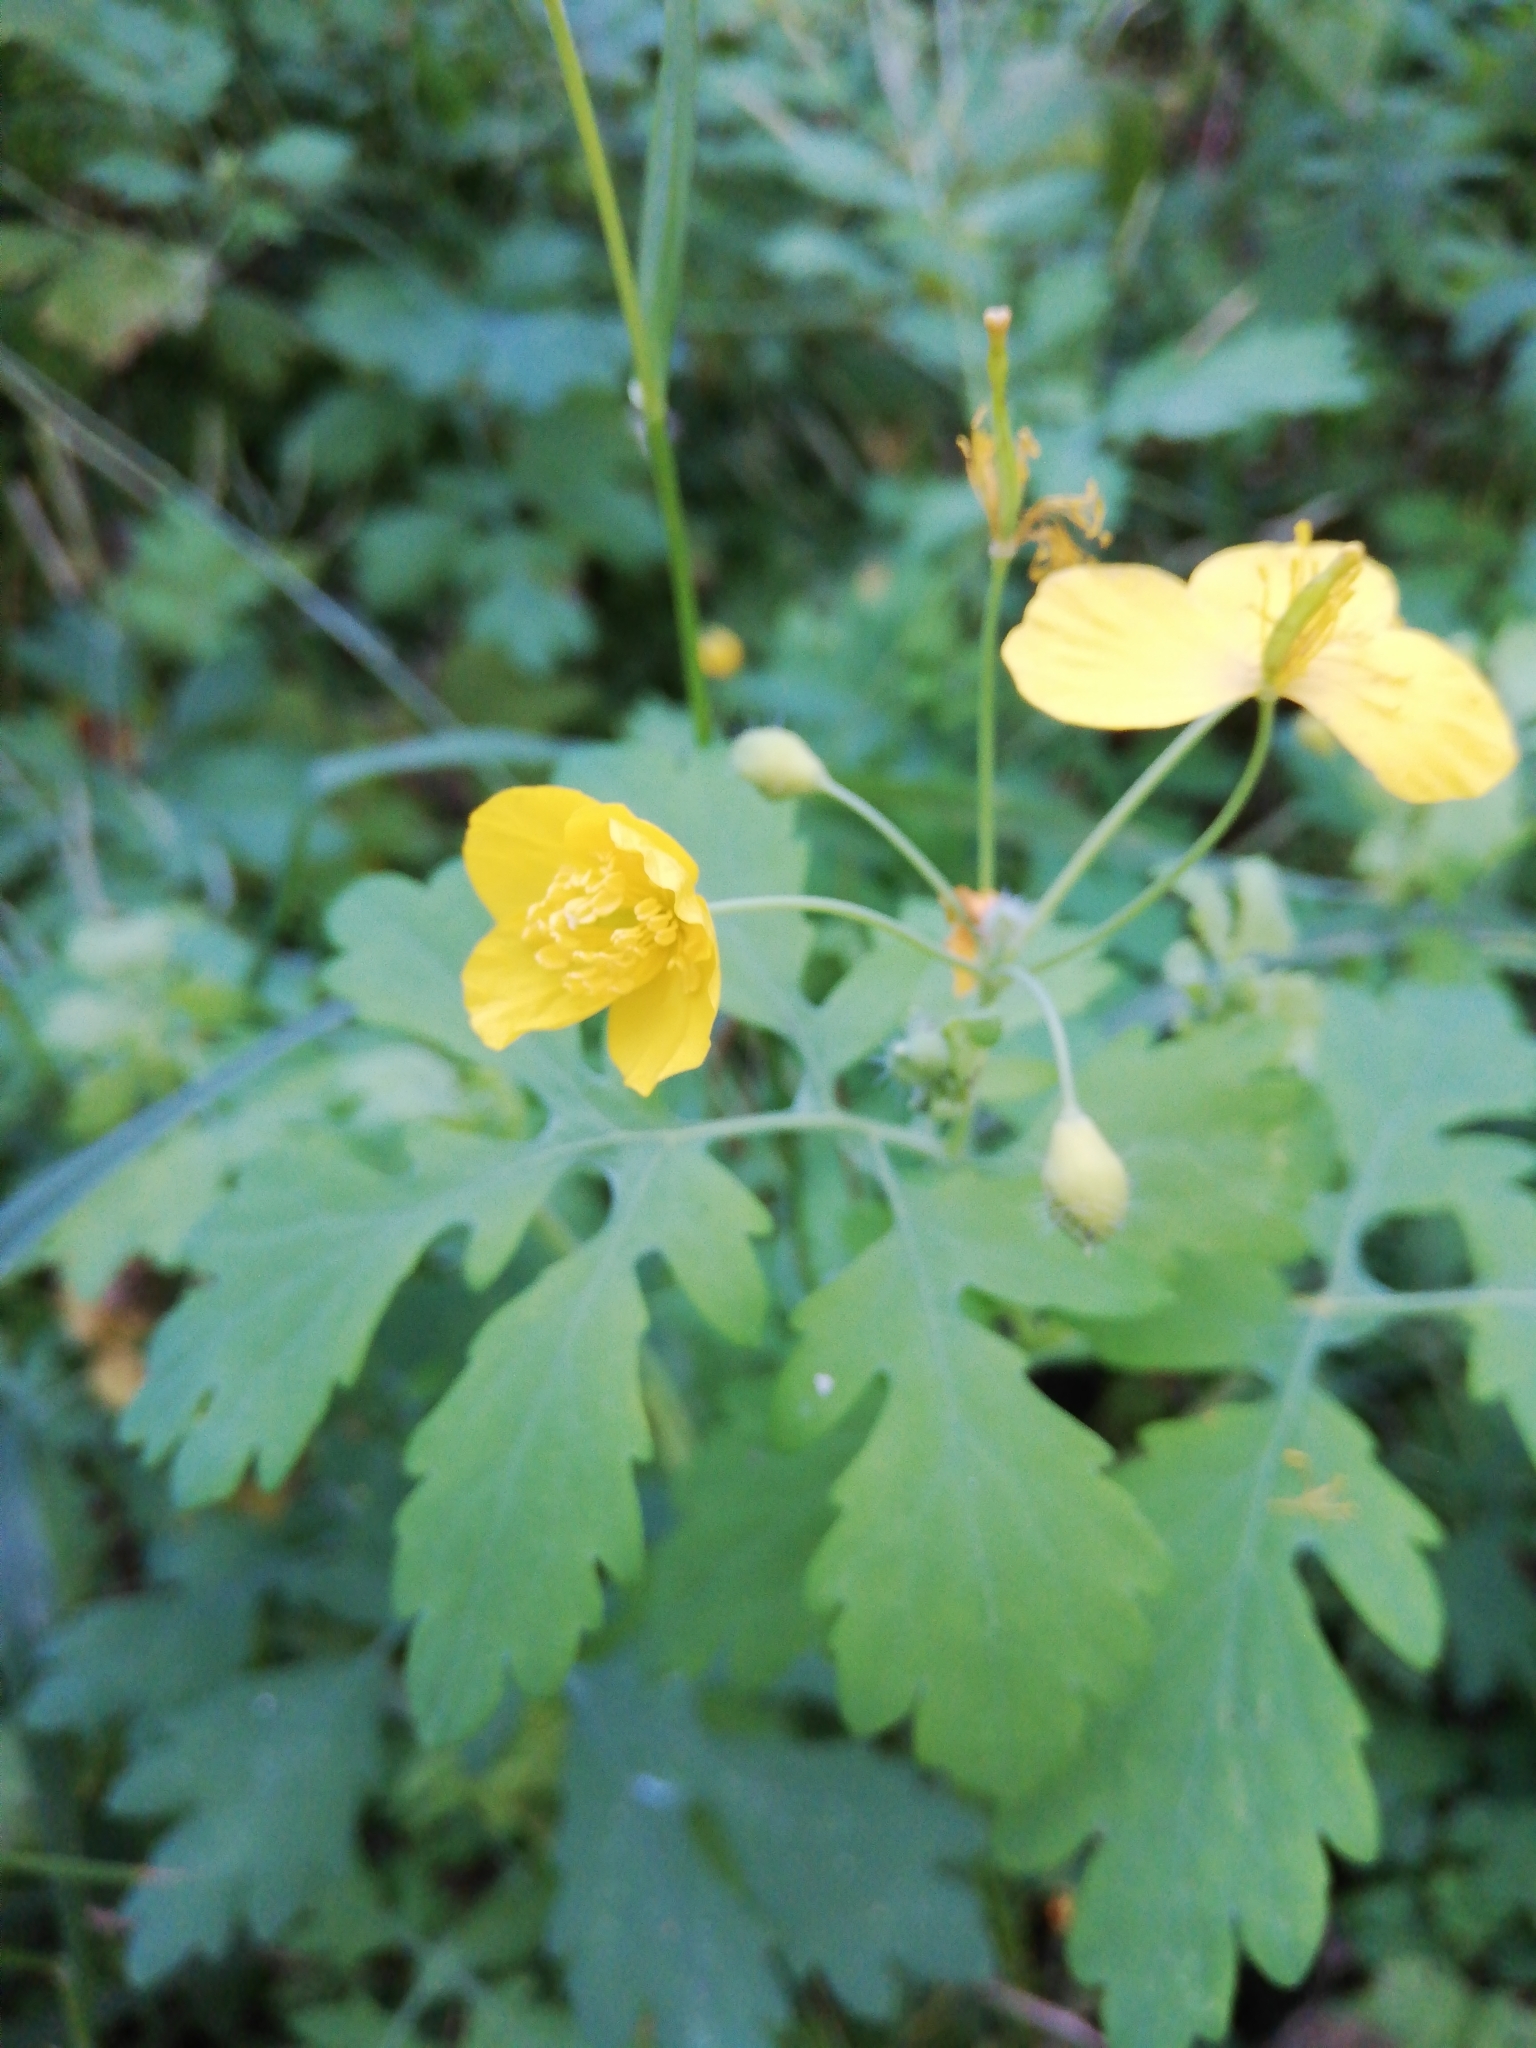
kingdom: Plantae
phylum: Tracheophyta
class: Magnoliopsida
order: Ranunculales
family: Papaveraceae
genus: Chelidonium
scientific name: Chelidonium majus
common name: Greater celandine
